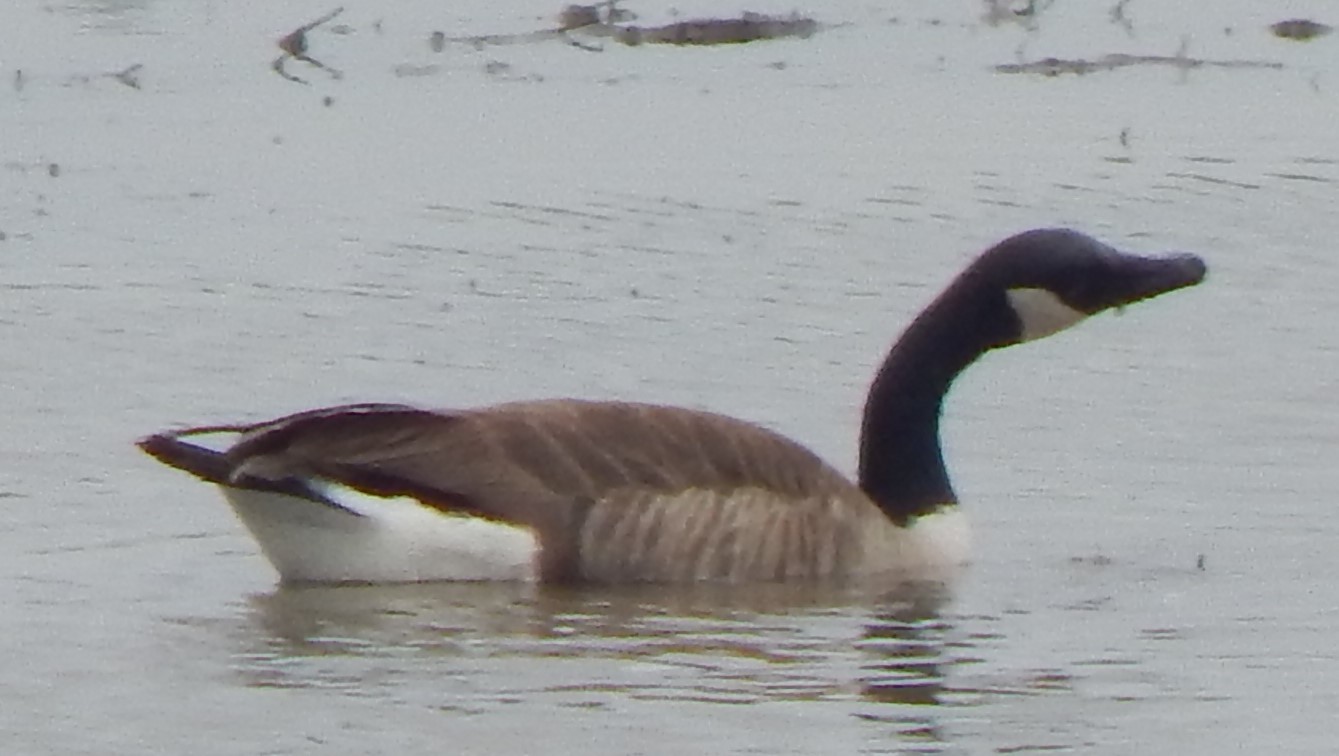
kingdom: Animalia
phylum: Chordata
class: Aves
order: Anseriformes
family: Anatidae
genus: Branta
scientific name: Branta canadensis
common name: Canada goose
